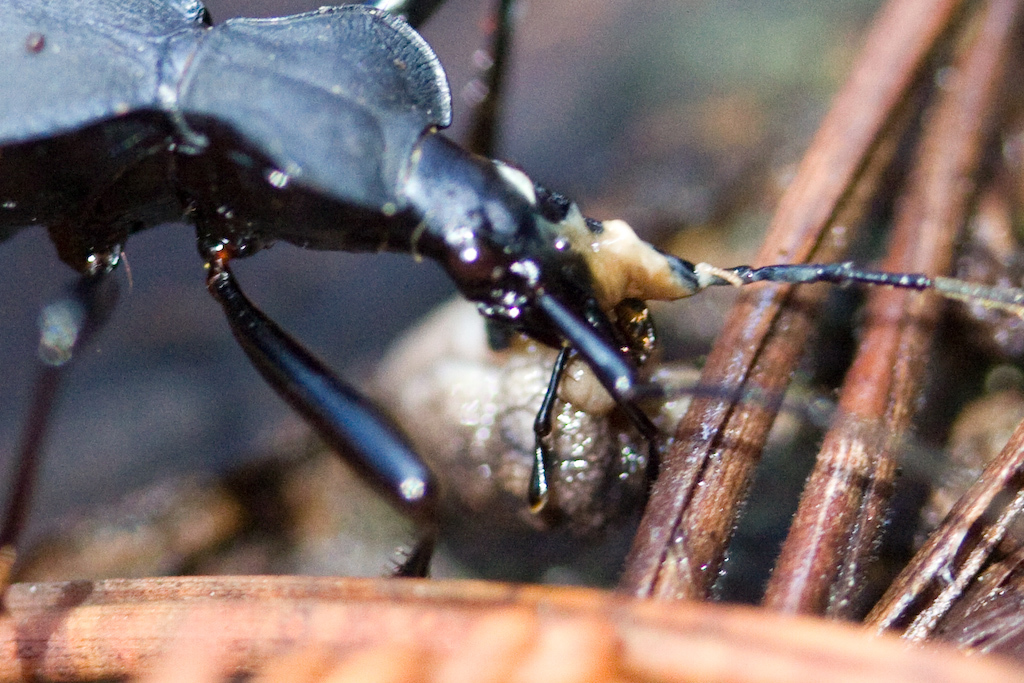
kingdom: Animalia
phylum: Arthropoda
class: Insecta
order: Coleoptera
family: Carabidae
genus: Scaphinotus
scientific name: Scaphinotus velutinus
